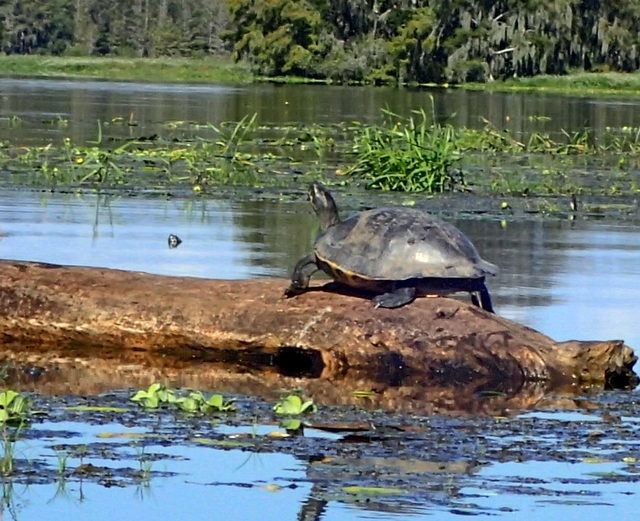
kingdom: Animalia
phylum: Chordata
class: Testudines
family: Emydidae
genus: Pseudemys
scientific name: Pseudemys peninsularis
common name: Peninsula cooter
